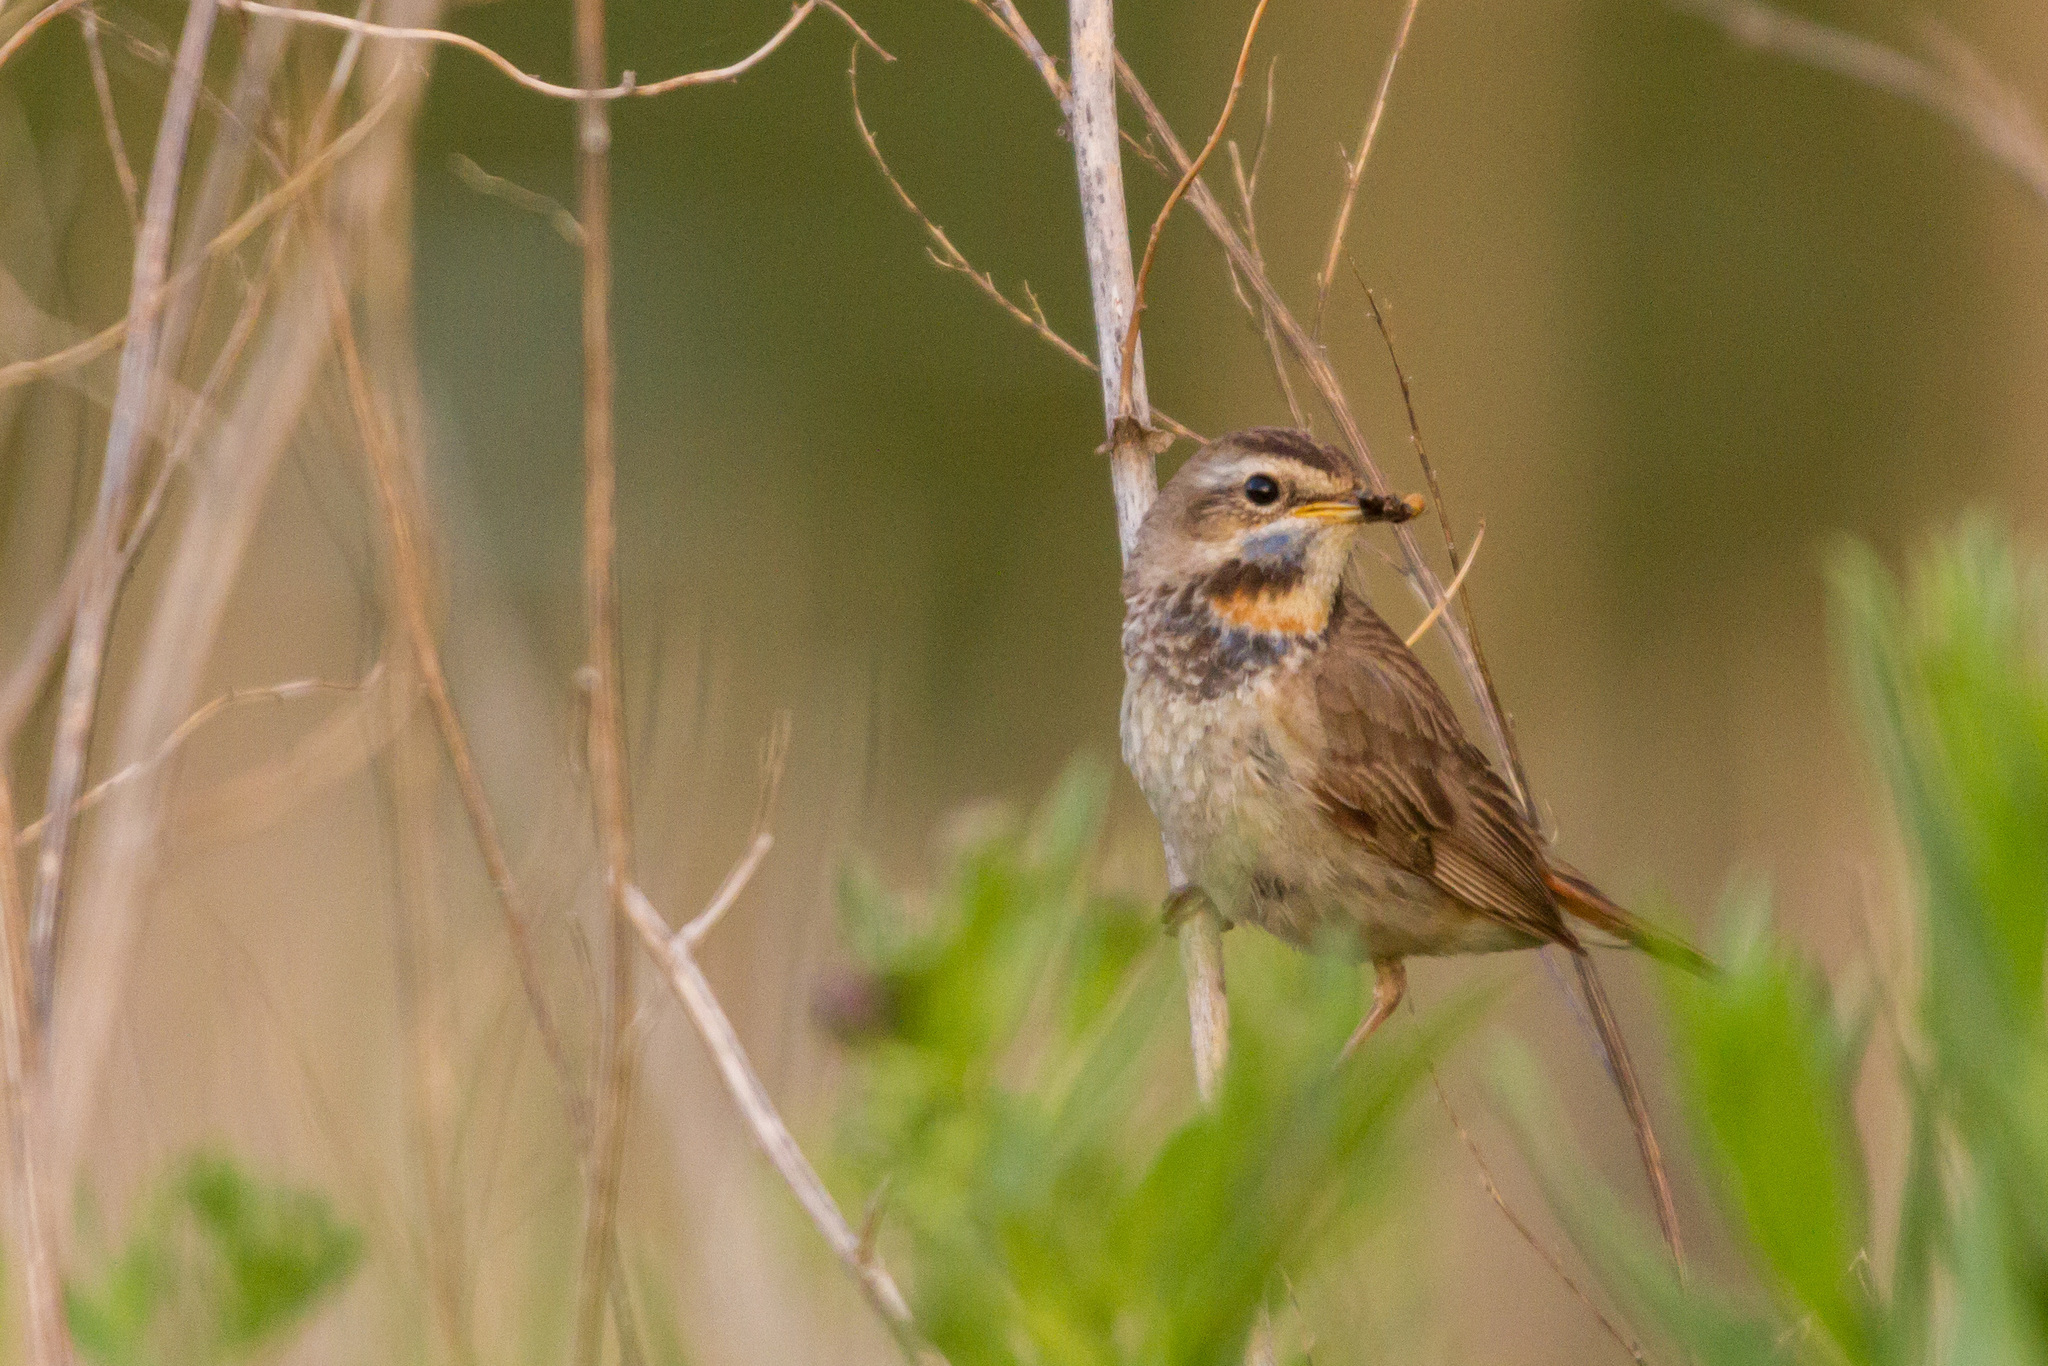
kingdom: Animalia
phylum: Chordata
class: Aves
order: Passeriformes
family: Muscicapidae
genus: Luscinia
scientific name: Luscinia svecica
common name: Bluethroat
